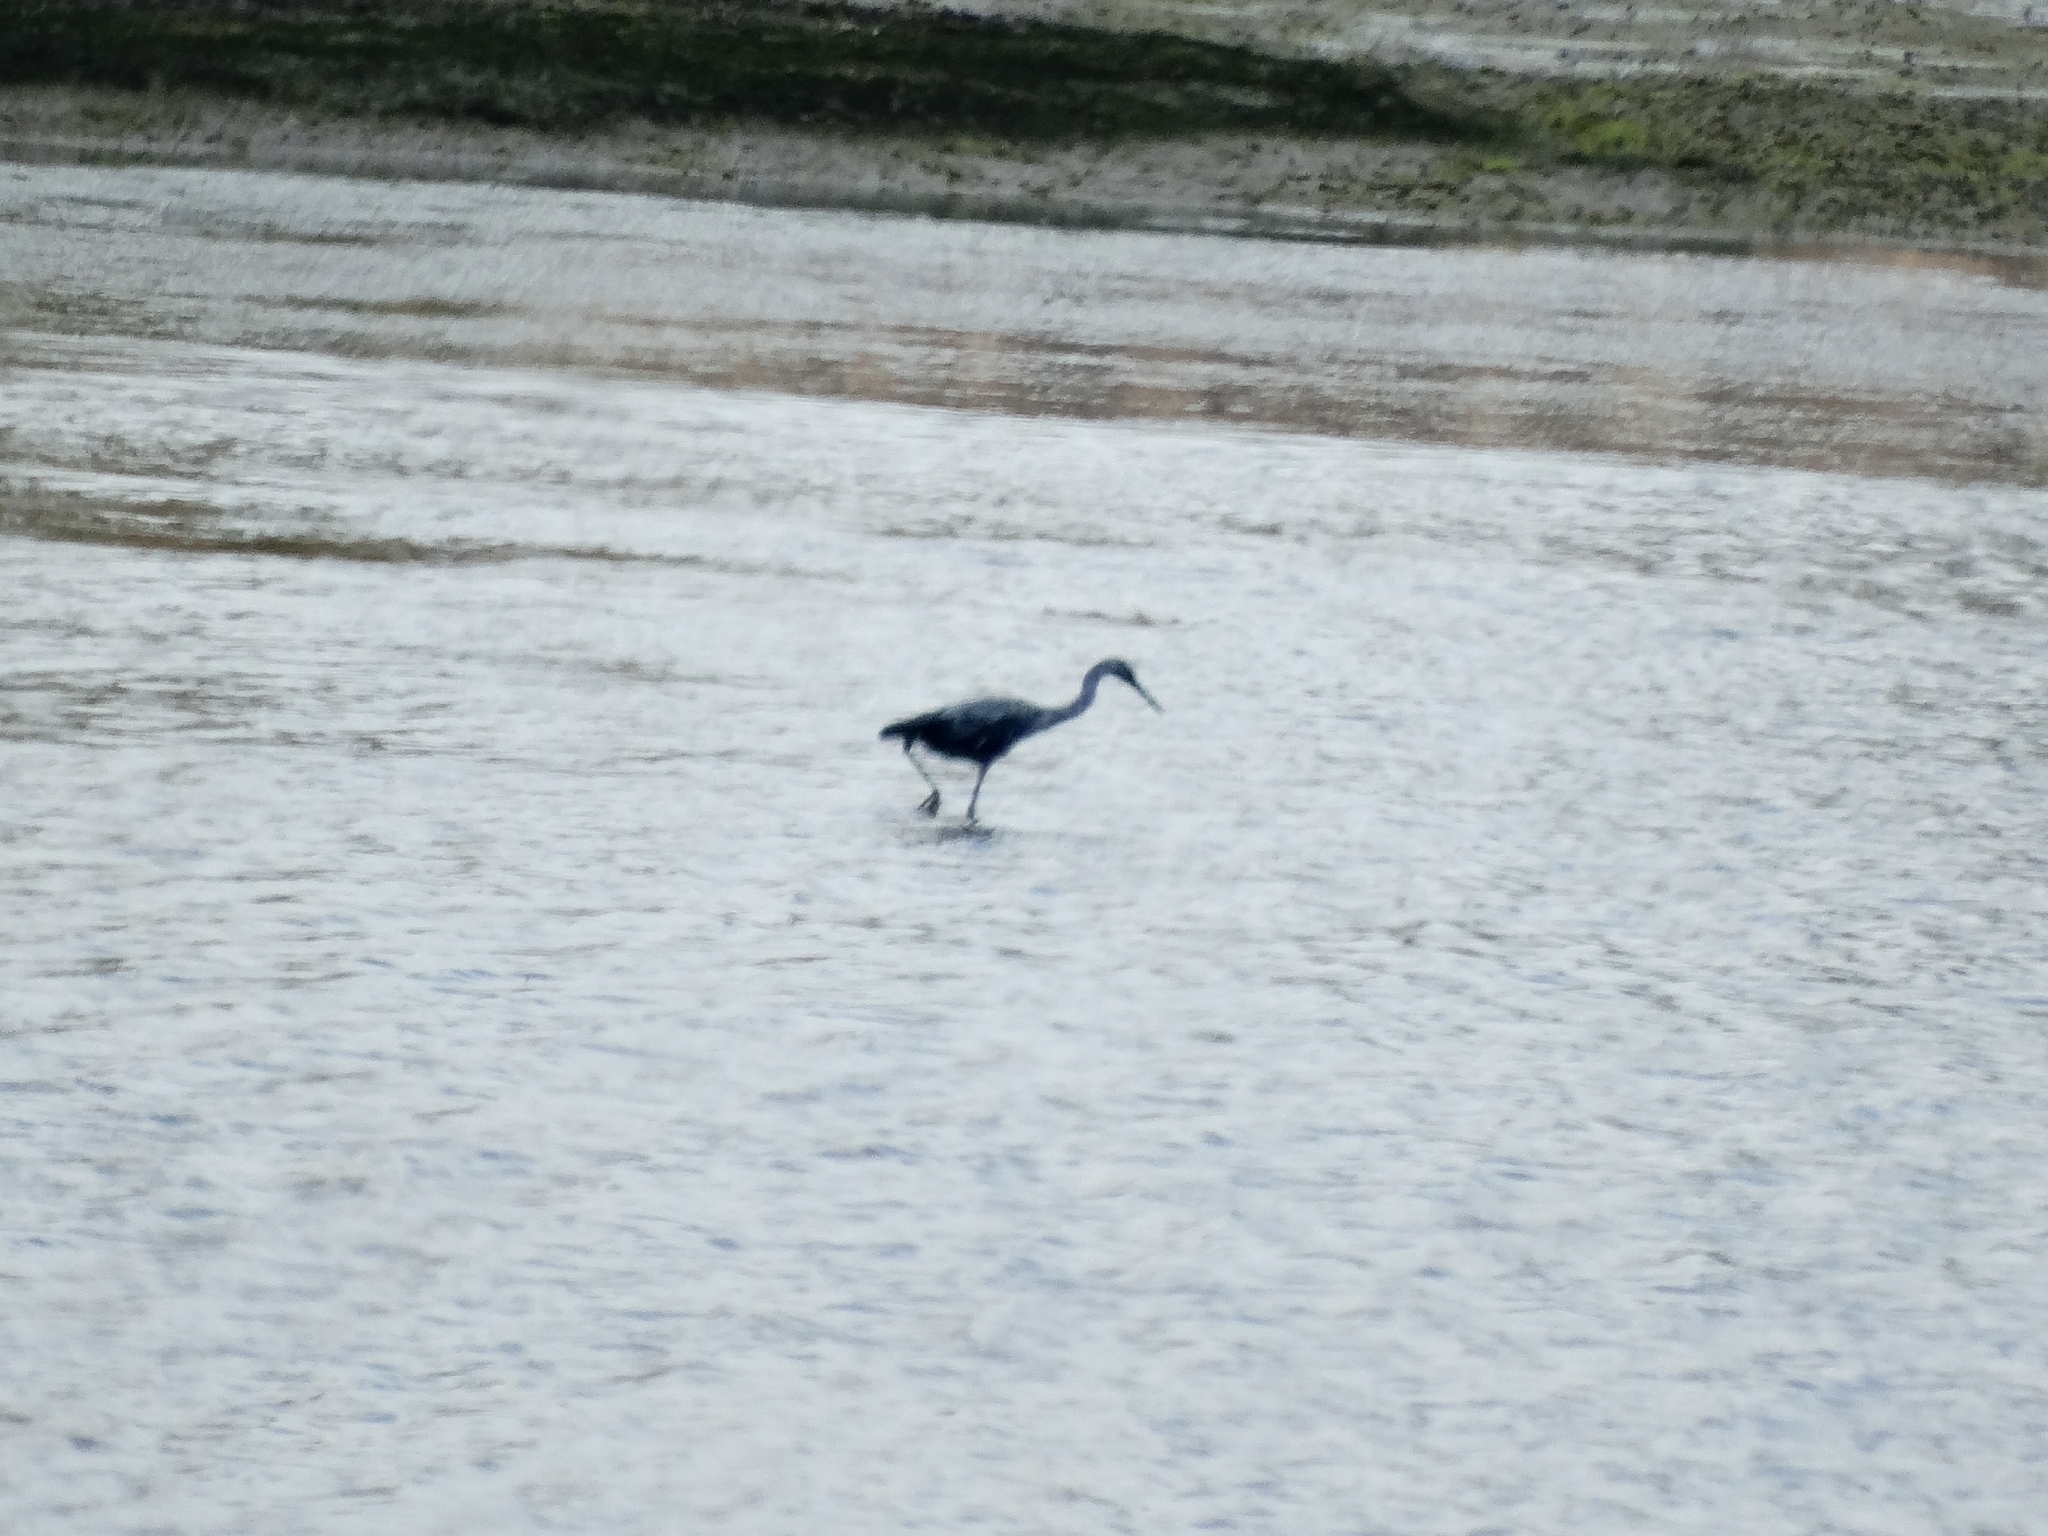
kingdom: Animalia
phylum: Chordata
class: Aves
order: Pelecaniformes
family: Ardeidae
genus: Egretta
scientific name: Egretta caerulea
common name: Little blue heron
